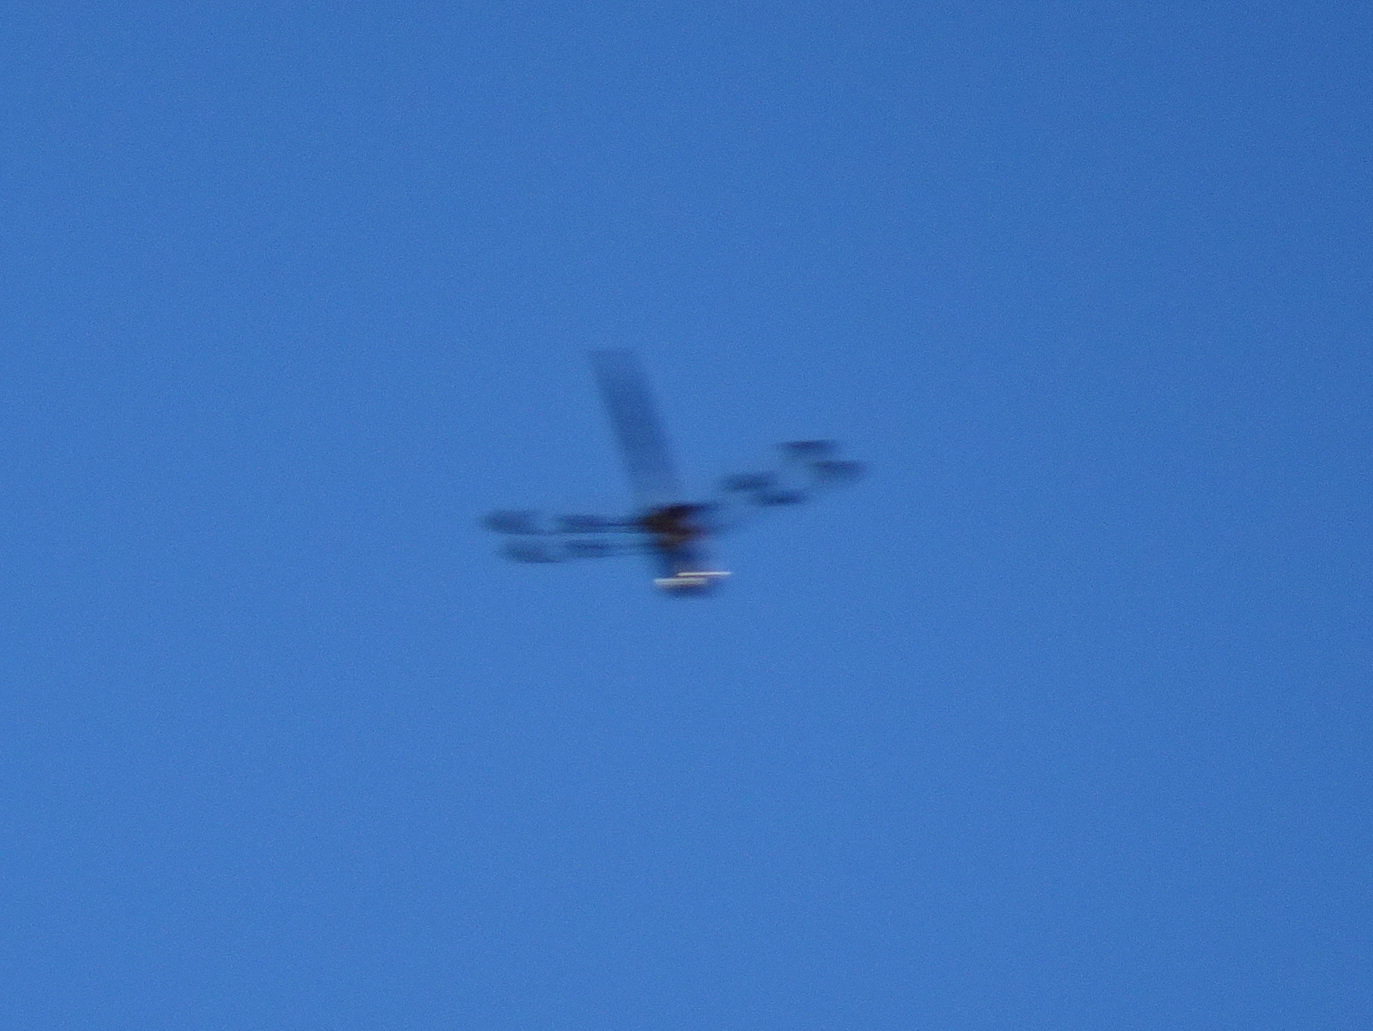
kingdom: Animalia
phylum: Arthropoda
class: Insecta
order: Odonata
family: Corduliidae
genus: Epitheca
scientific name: Epitheca princeps
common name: Prince baskettail
